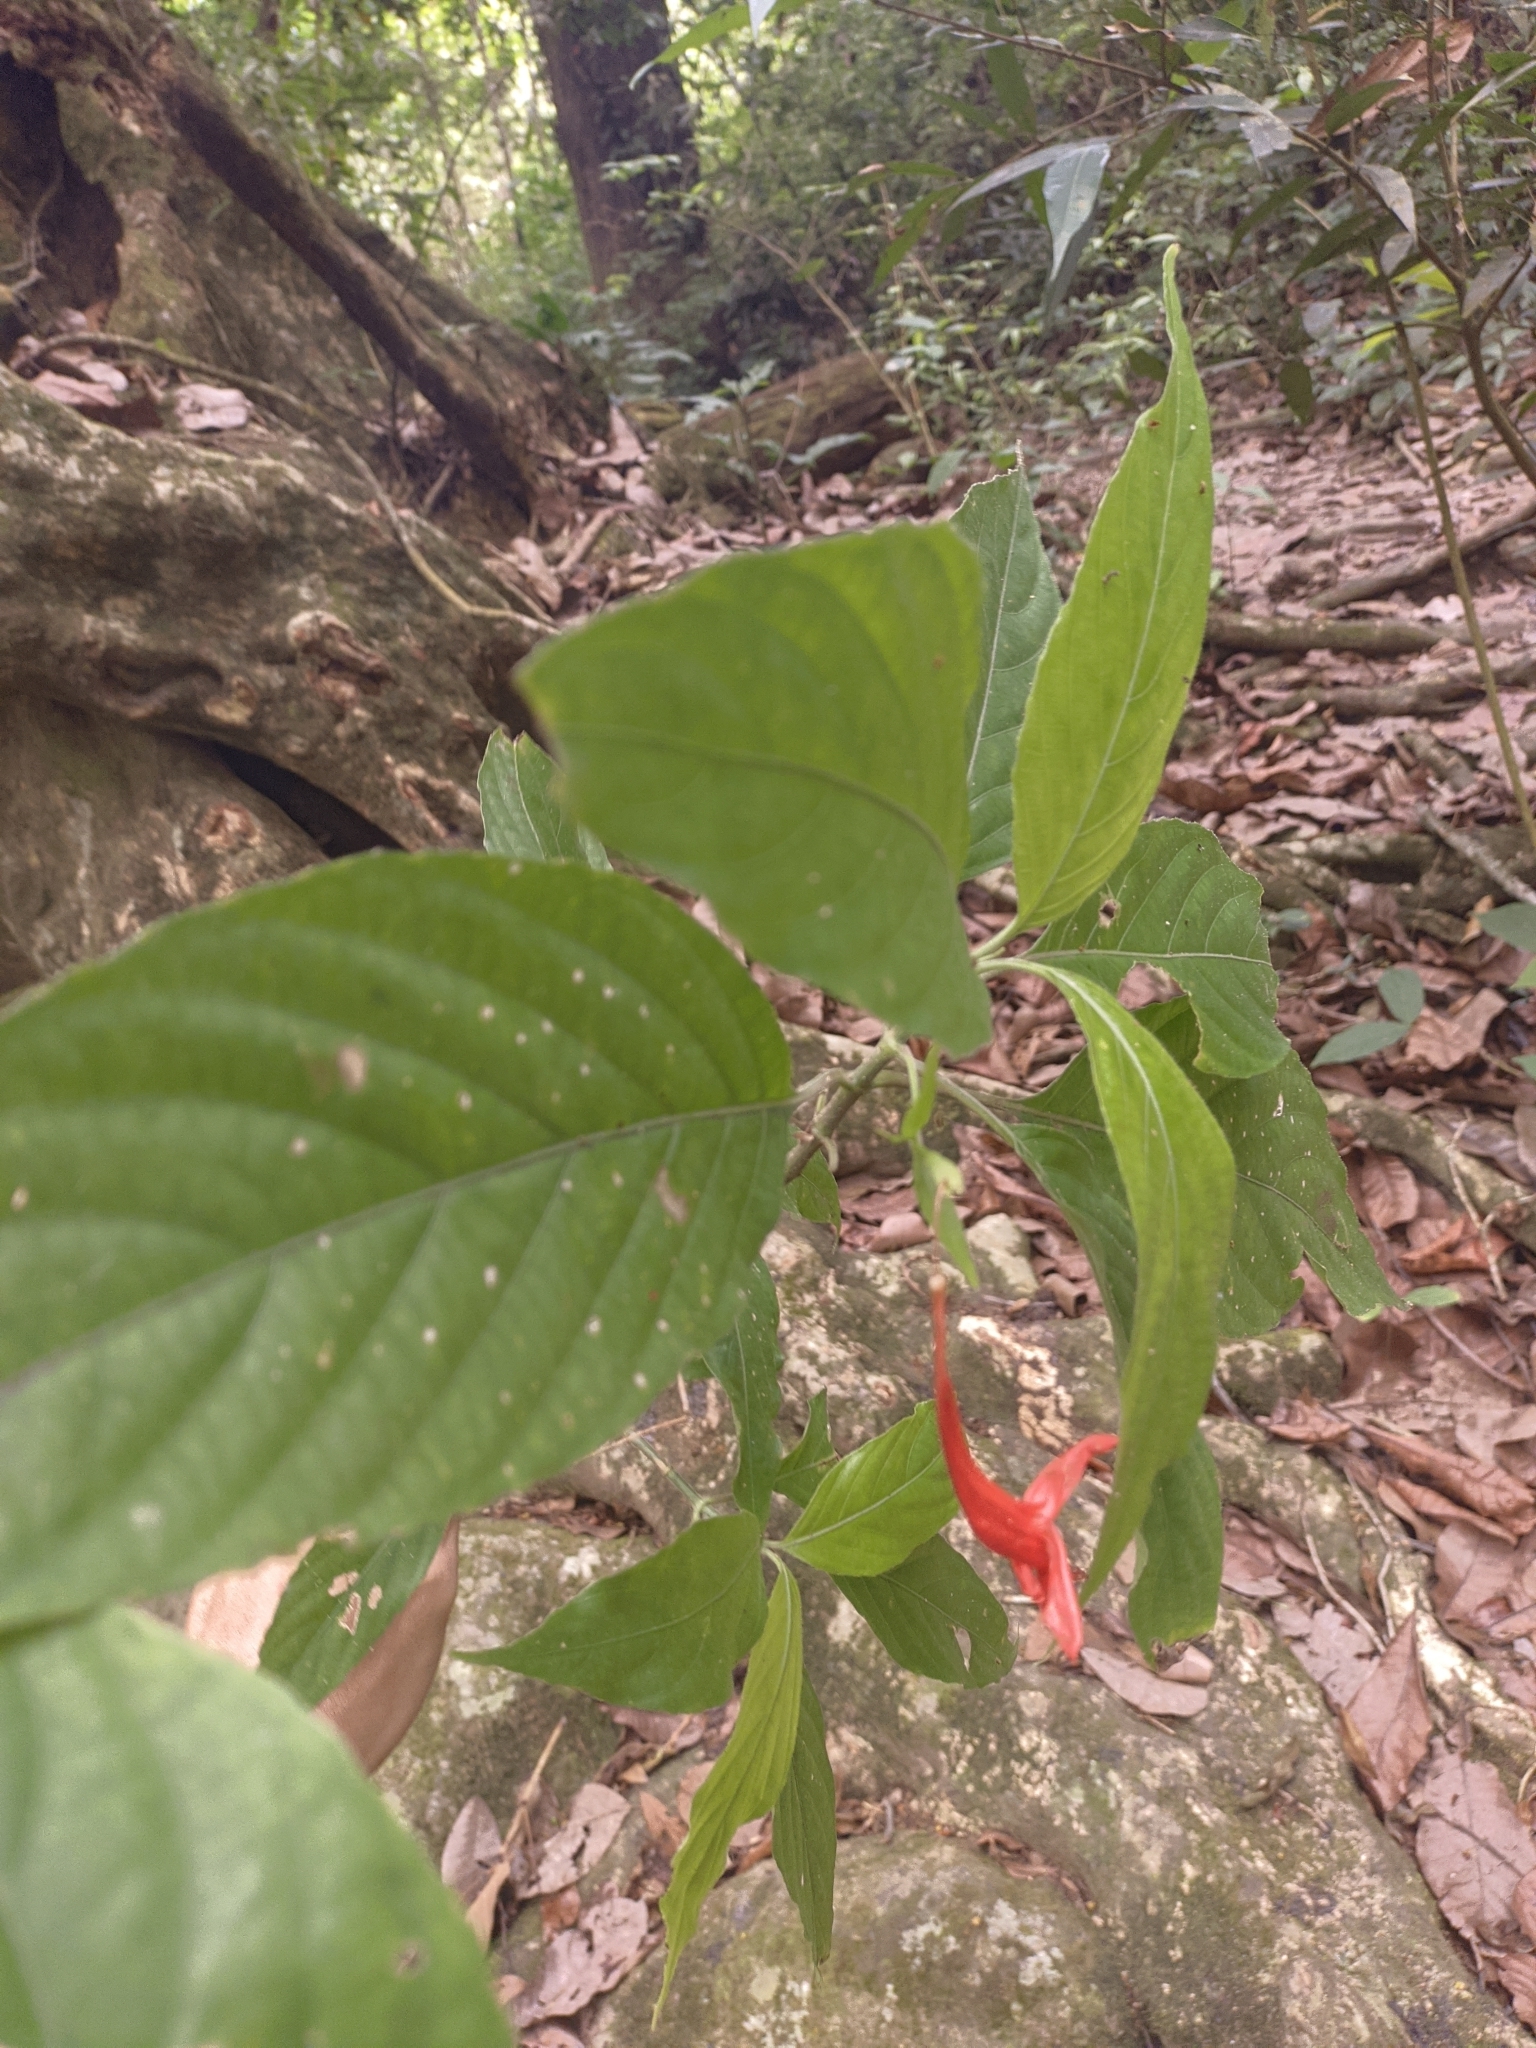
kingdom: Plantae
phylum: Tracheophyta
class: Magnoliopsida
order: Lamiales
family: Acanthaceae
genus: Ruellia
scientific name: Ruellia macrophylla
